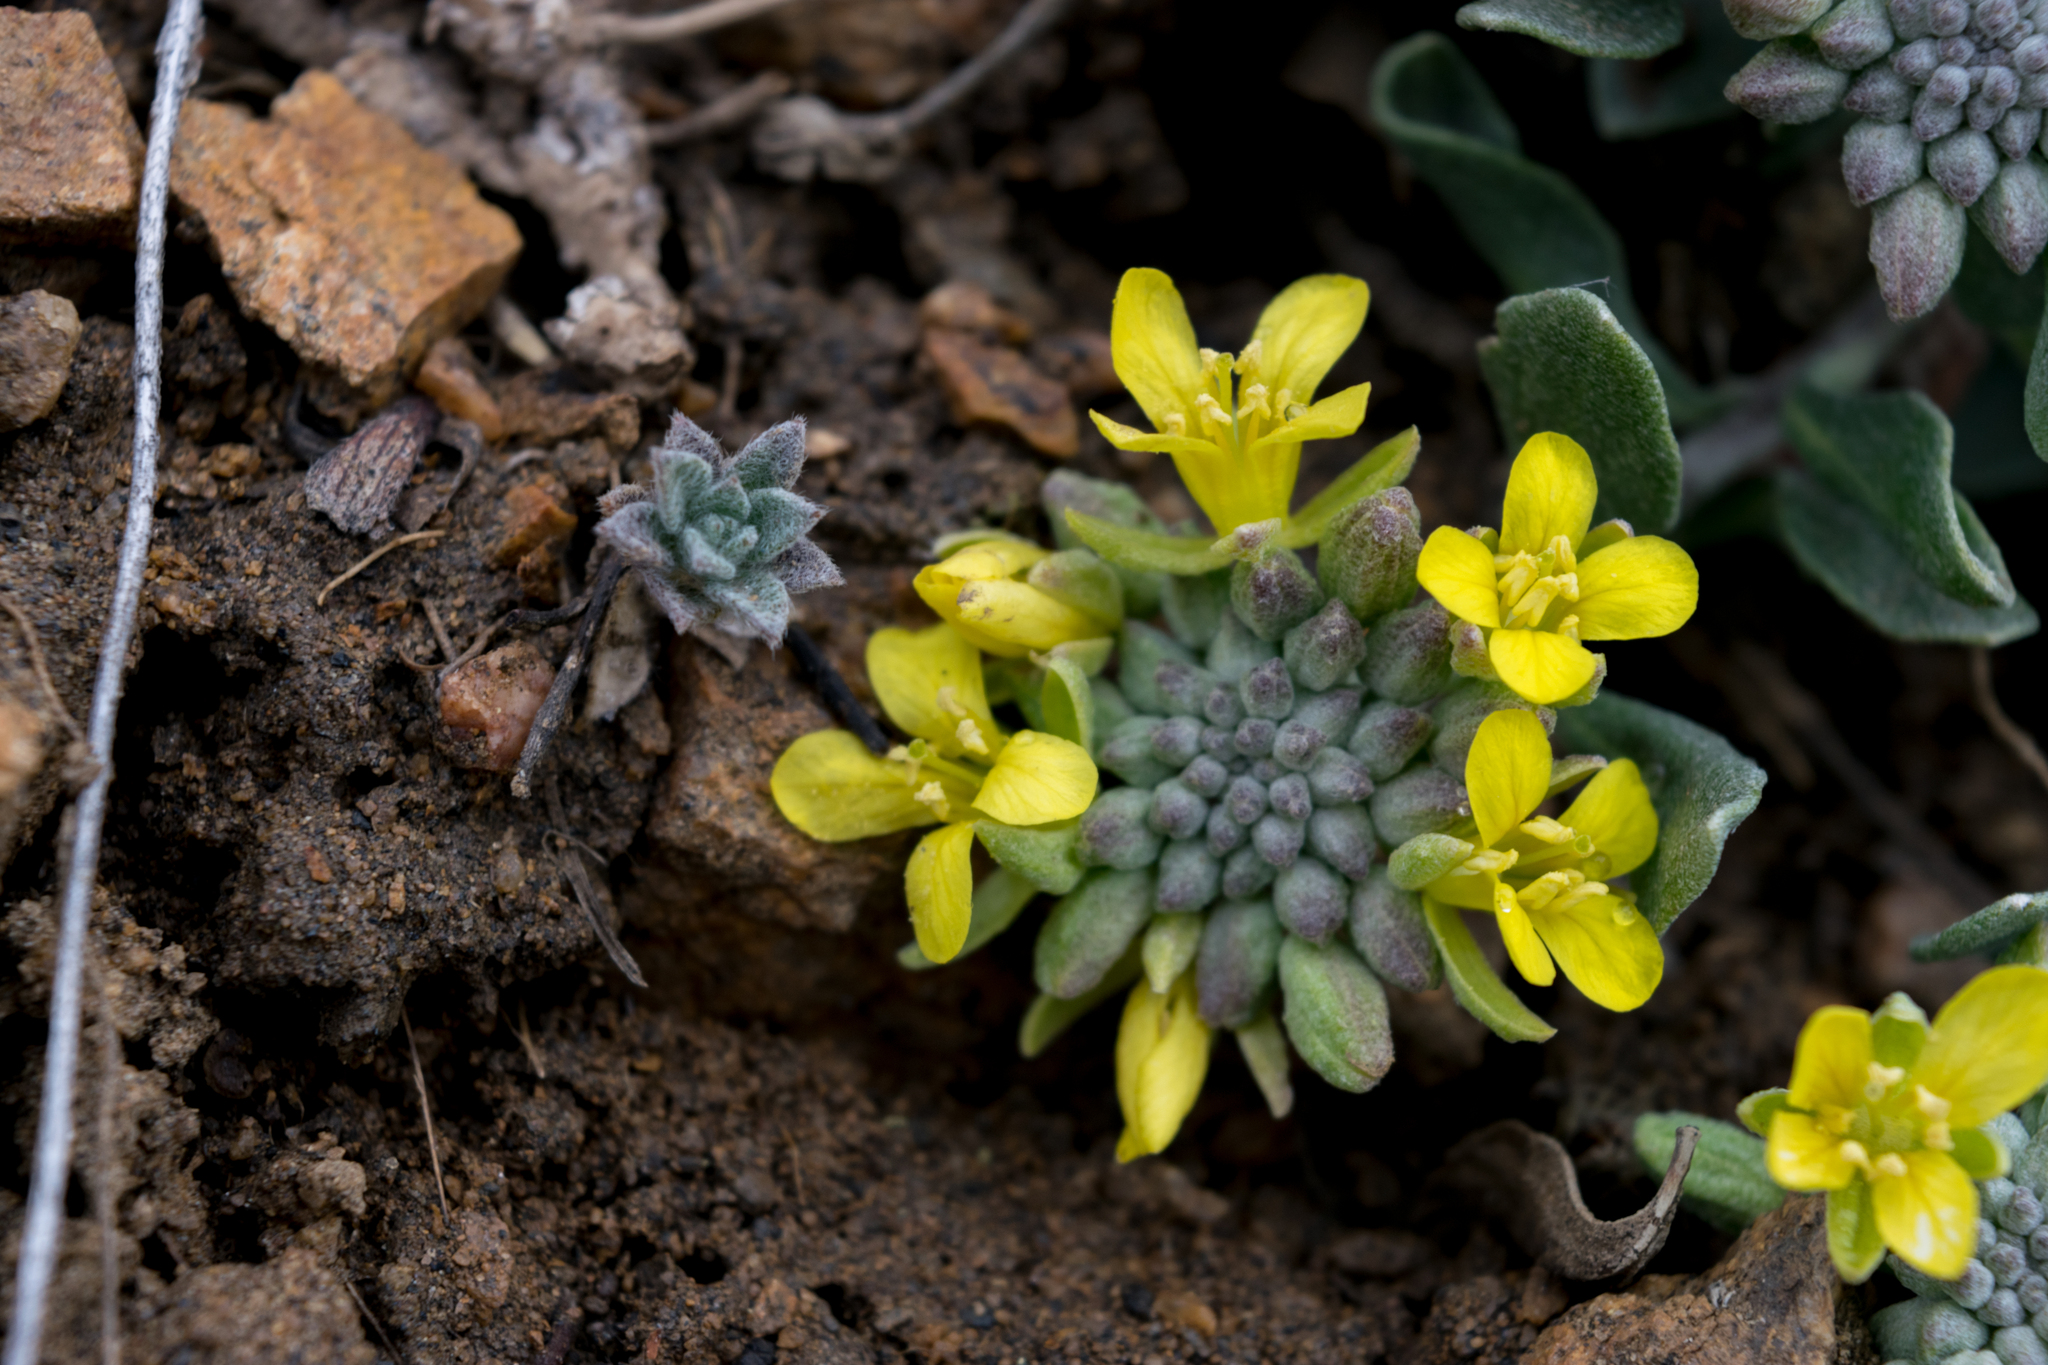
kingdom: Plantae
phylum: Tracheophyta
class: Magnoliopsida
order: Brassicales
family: Brassicaceae
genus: Physaria
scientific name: Physaria vitulifera
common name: Roundtrip twinpod
